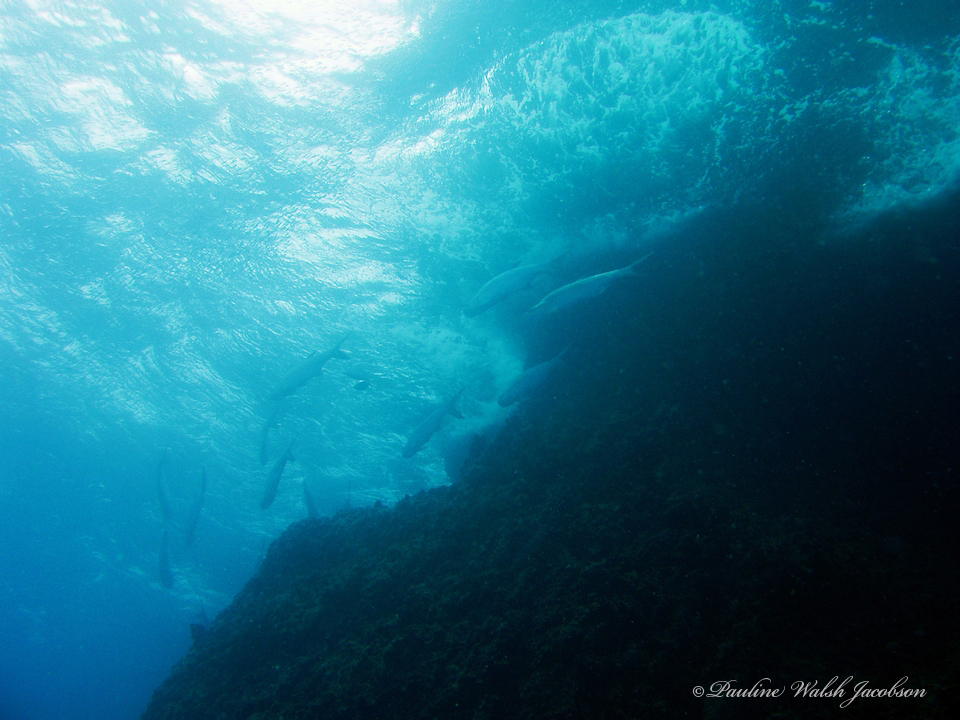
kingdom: Animalia
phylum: Chordata
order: Elopiformes
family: Megalopidae
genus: Megalops
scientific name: Megalops atlanticus
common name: Tarpon
